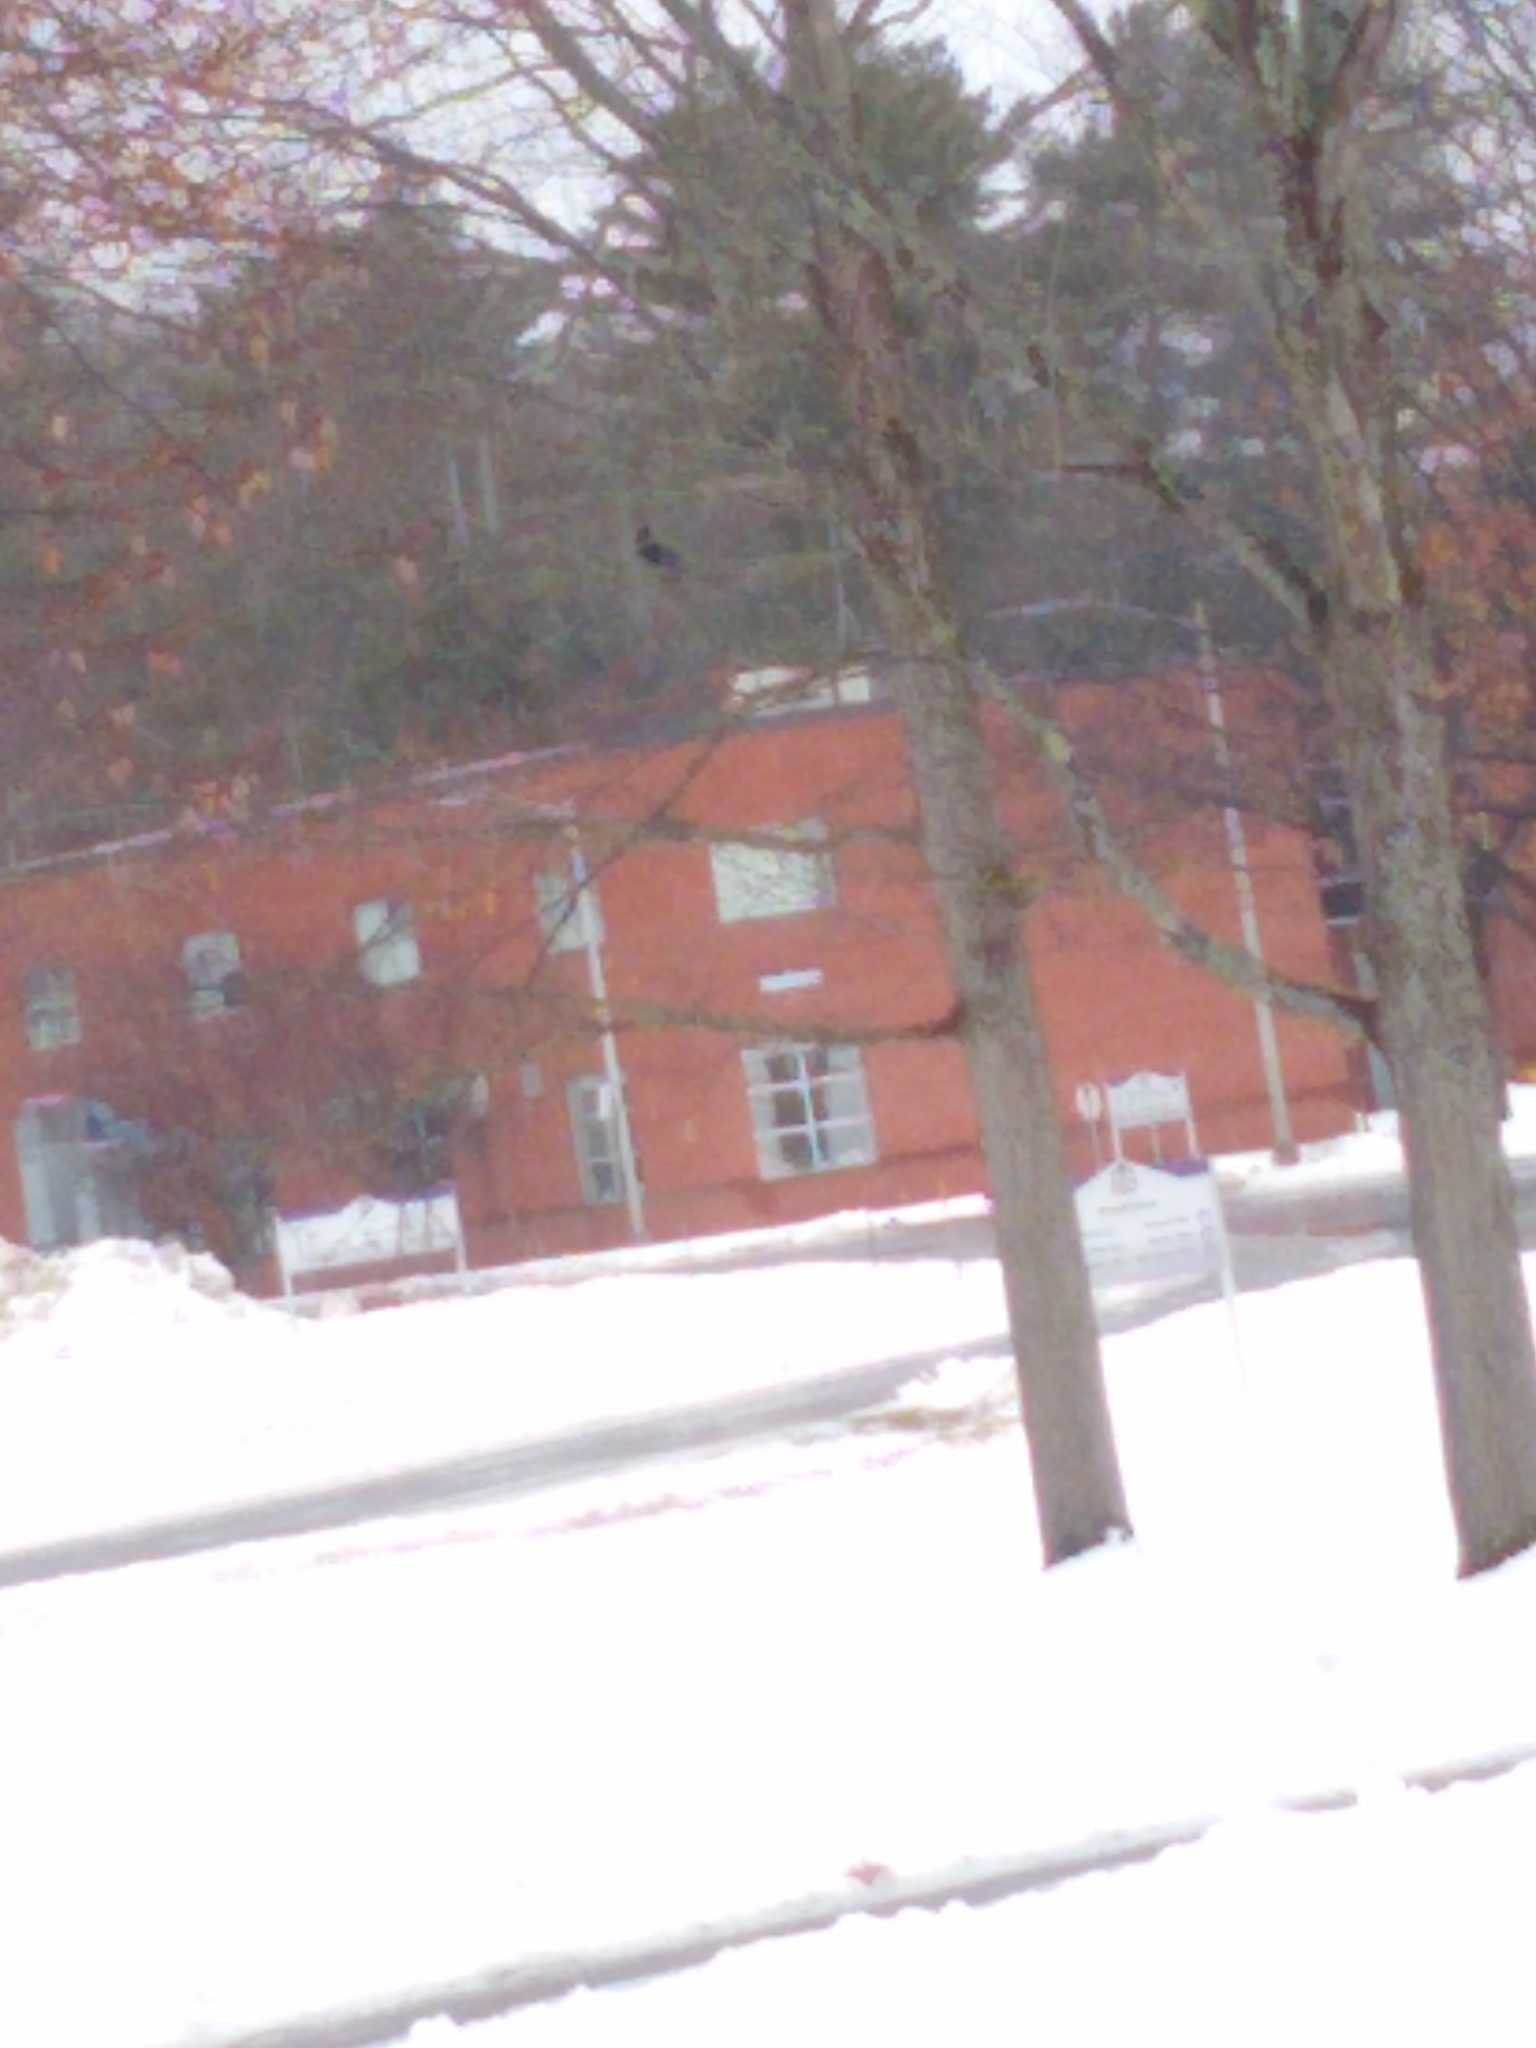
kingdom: Animalia
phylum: Chordata
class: Aves
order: Passeriformes
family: Corvidae
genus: Corvus
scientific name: Corvus
